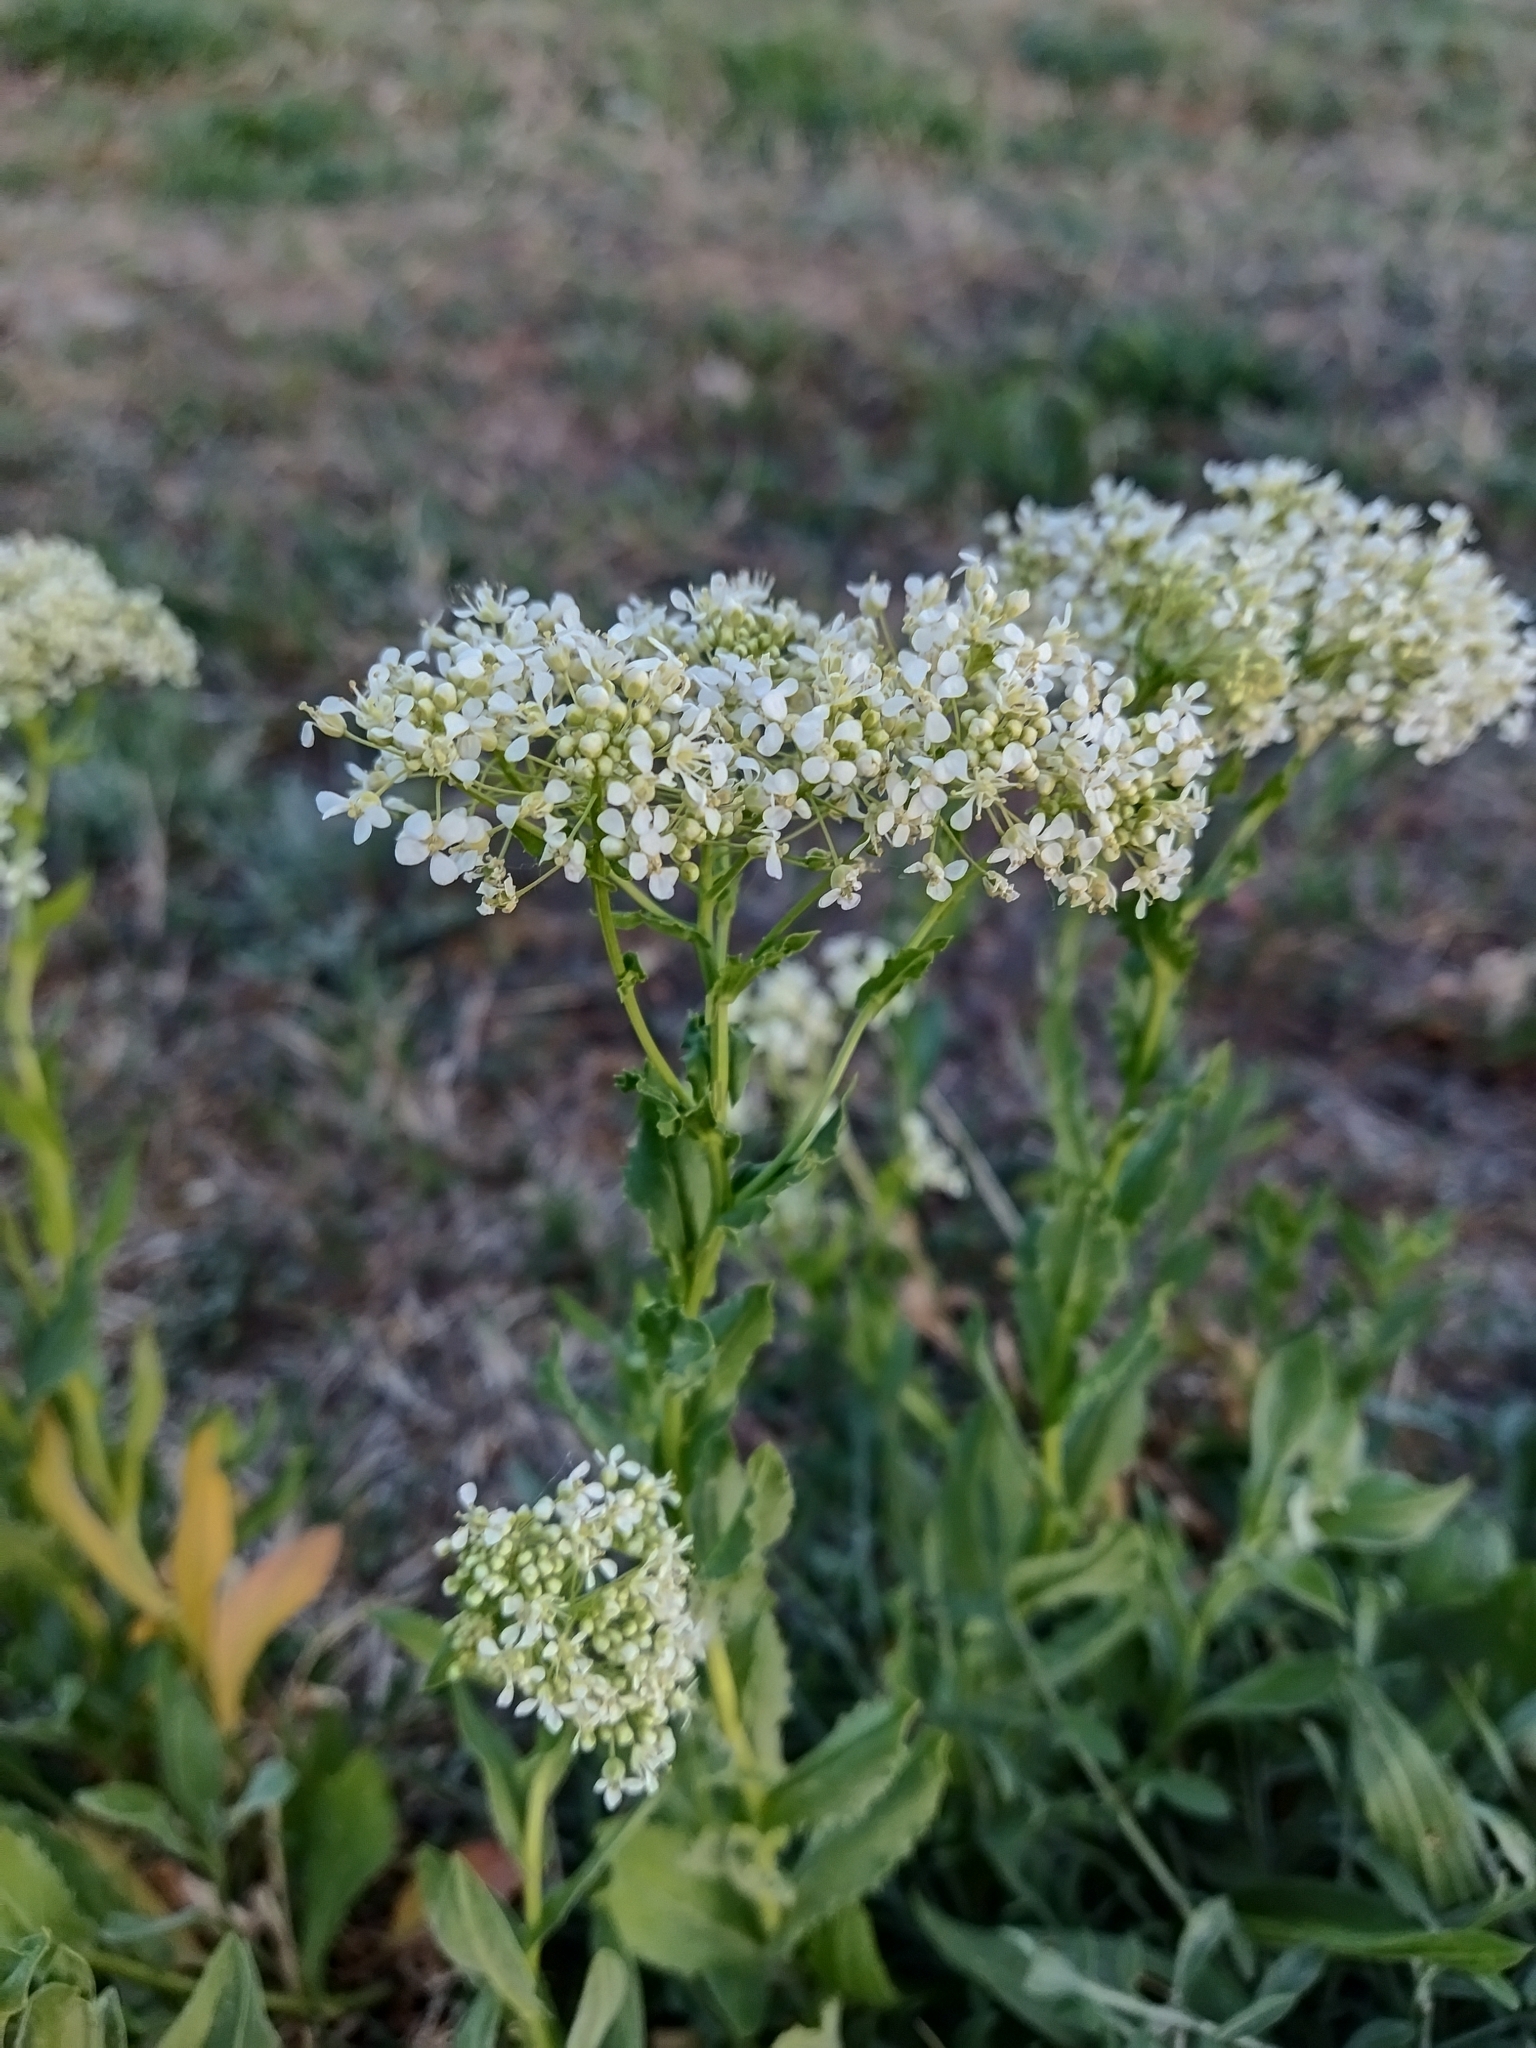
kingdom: Plantae
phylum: Tracheophyta
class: Magnoliopsida
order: Brassicales
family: Brassicaceae
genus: Lepidium
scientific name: Lepidium draba
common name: Hoary cress
